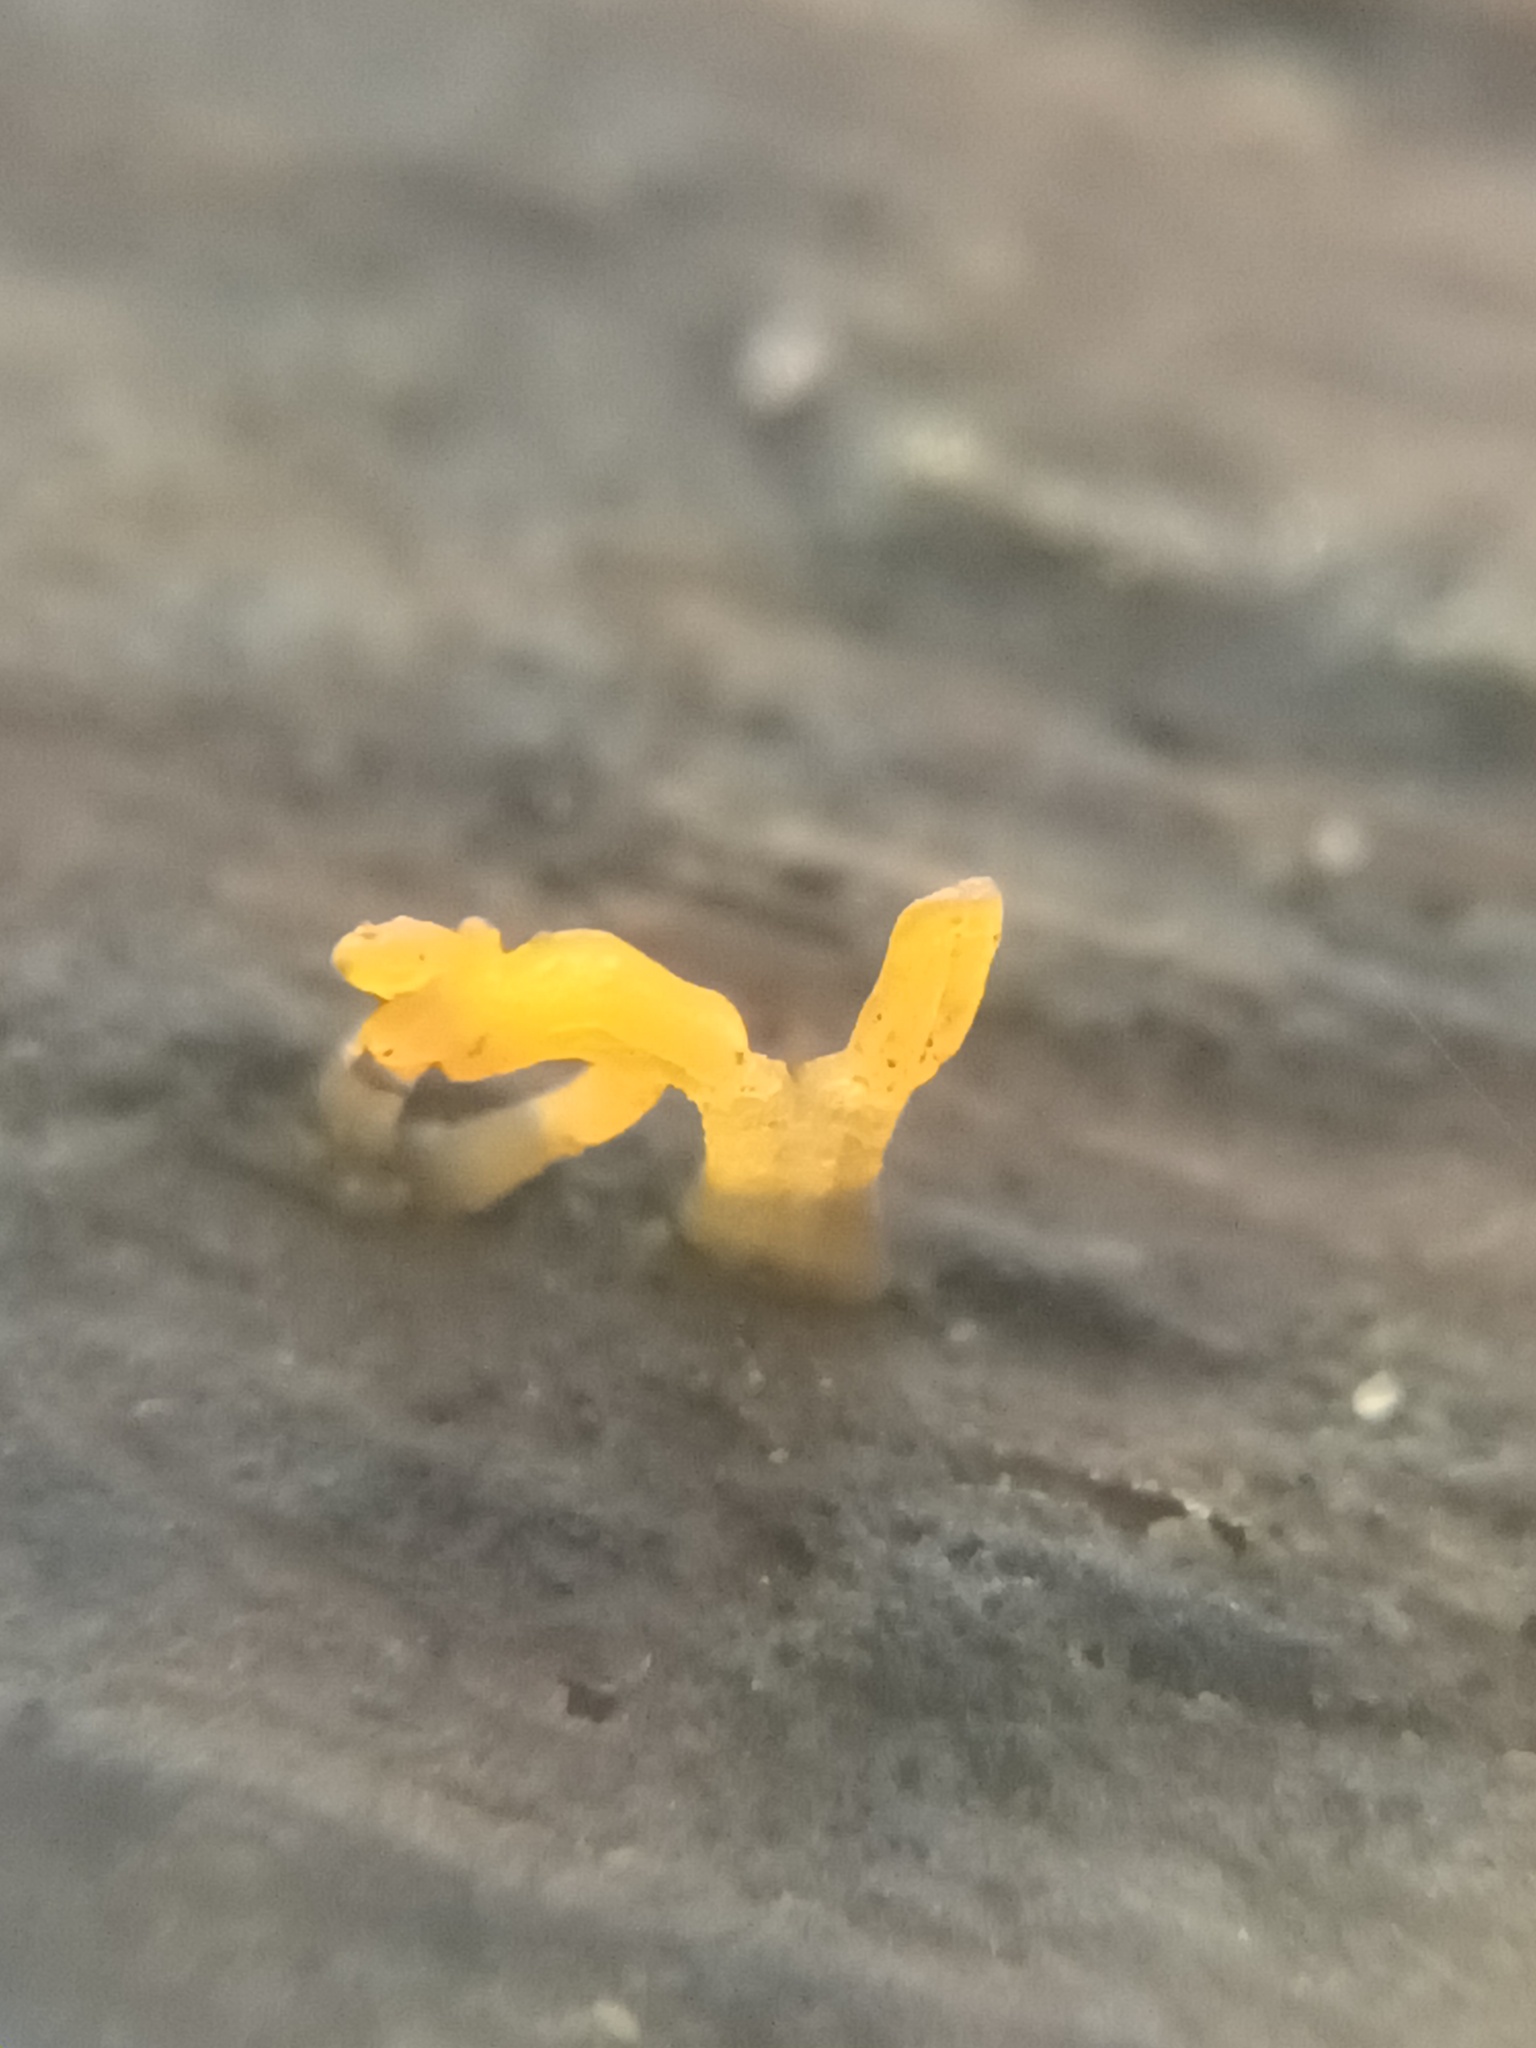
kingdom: Fungi
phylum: Basidiomycota
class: Dacrymycetes
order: Dacrymycetales
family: Dacrymycetaceae
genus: Calocera
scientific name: Calocera cornea
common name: Small stagshorn
